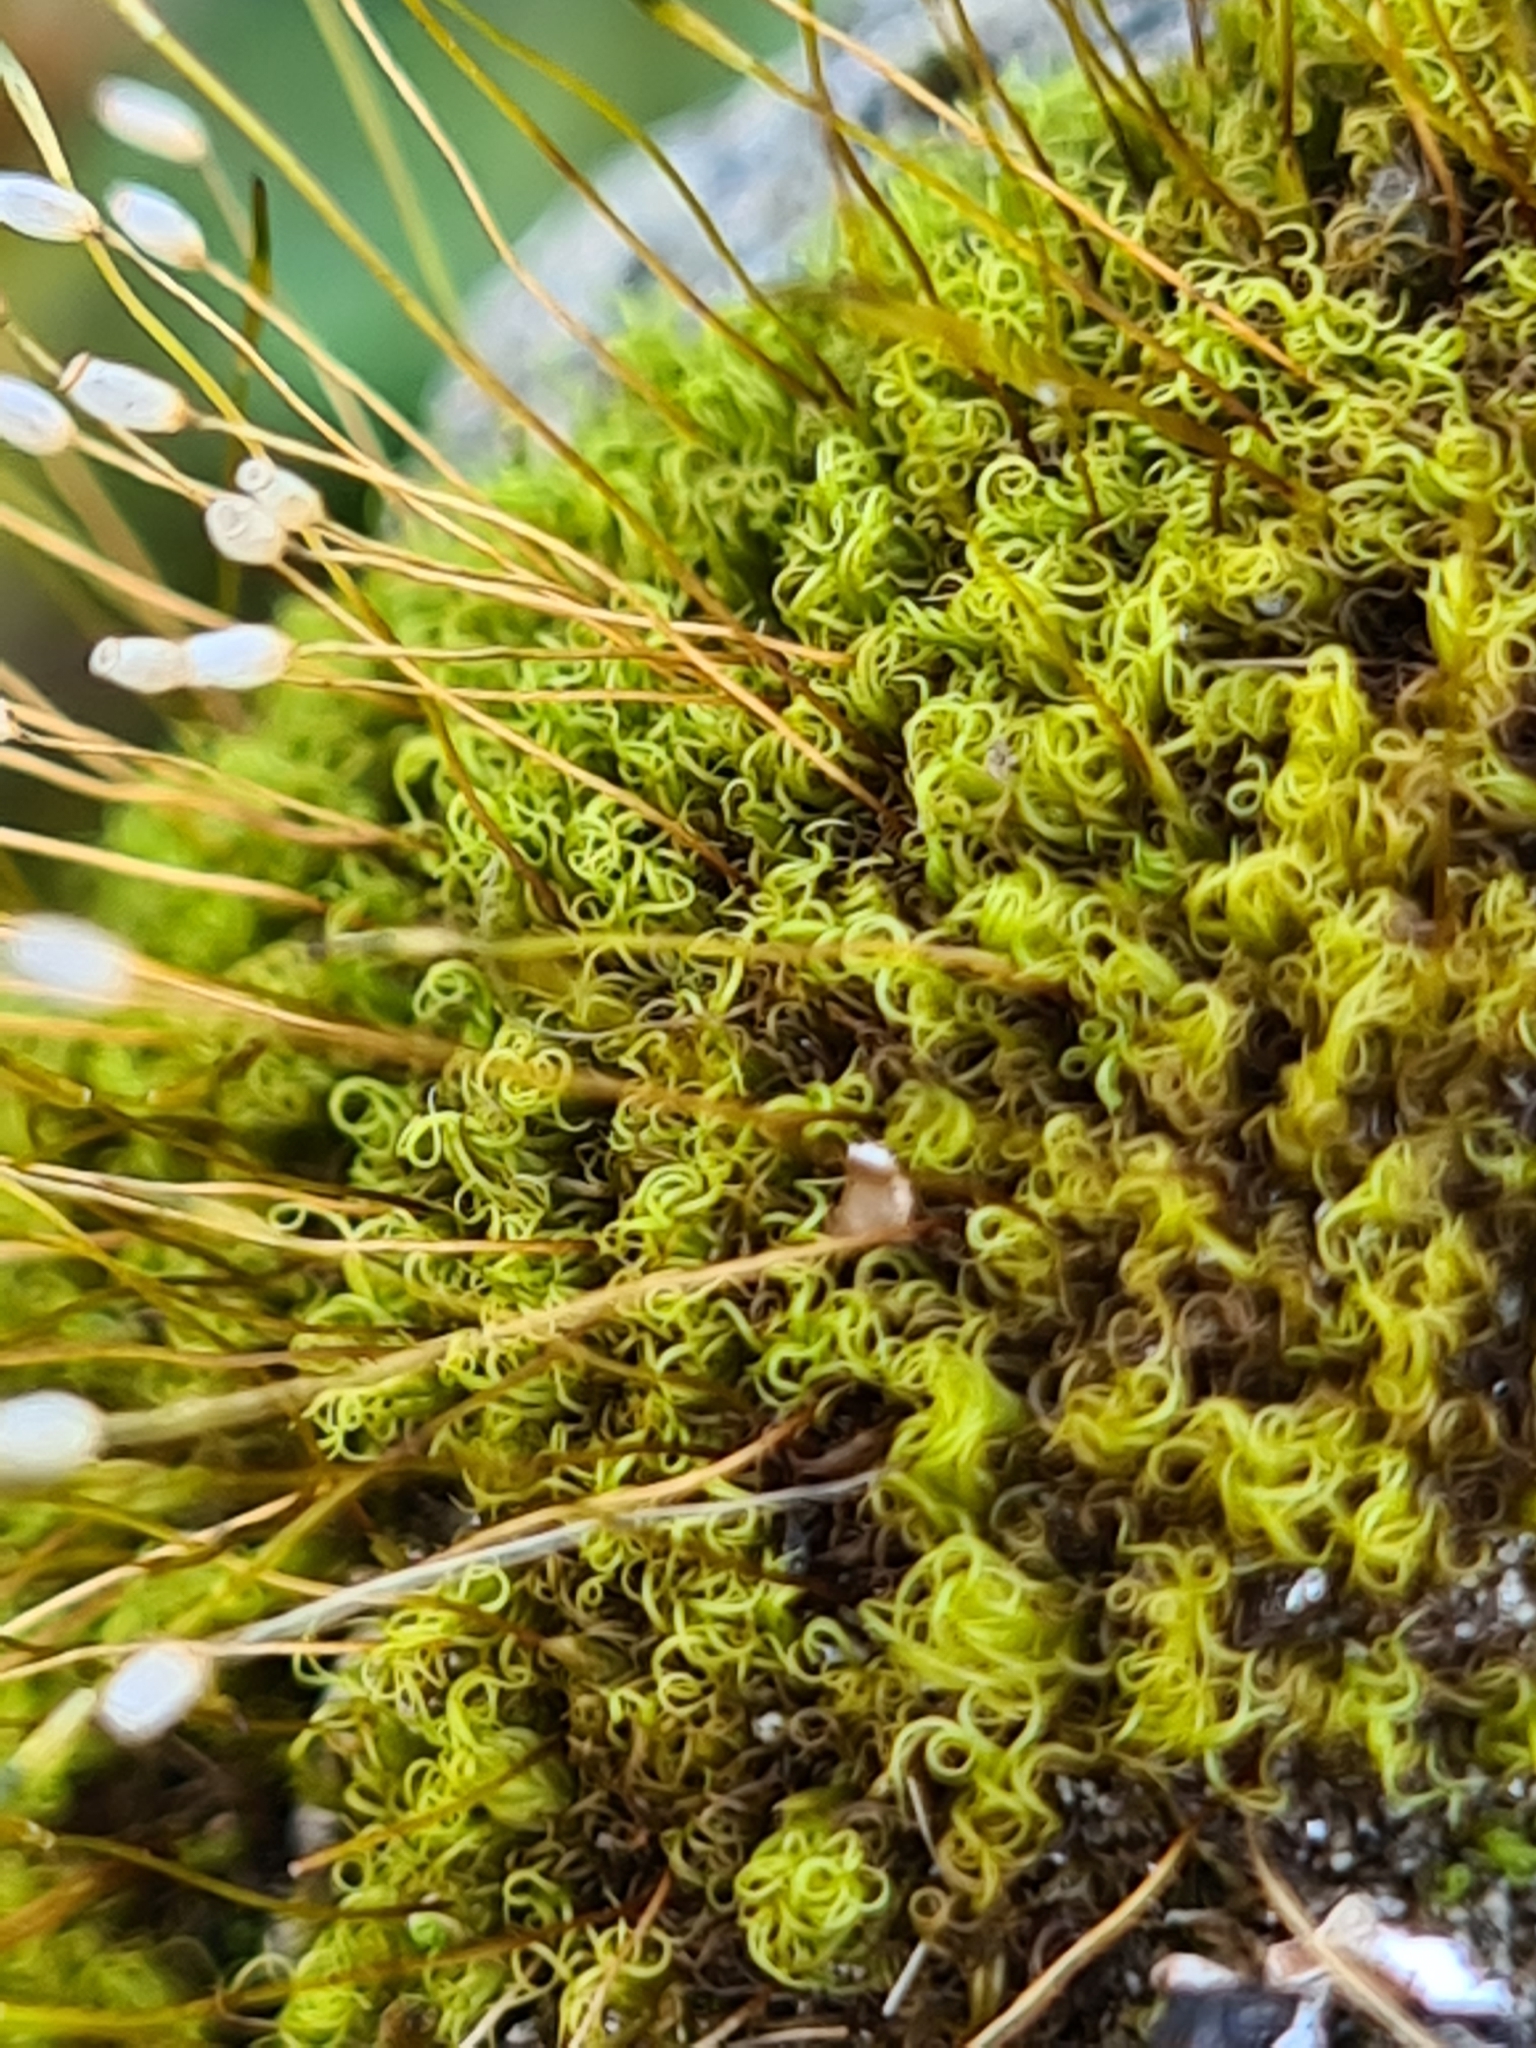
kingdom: Plantae
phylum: Bryophyta
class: Bryopsida
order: Scouleriales
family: Hymenolomataceae
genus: Hymenoloma
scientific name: Hymenoloma crispulum
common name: Mountain pincushion
